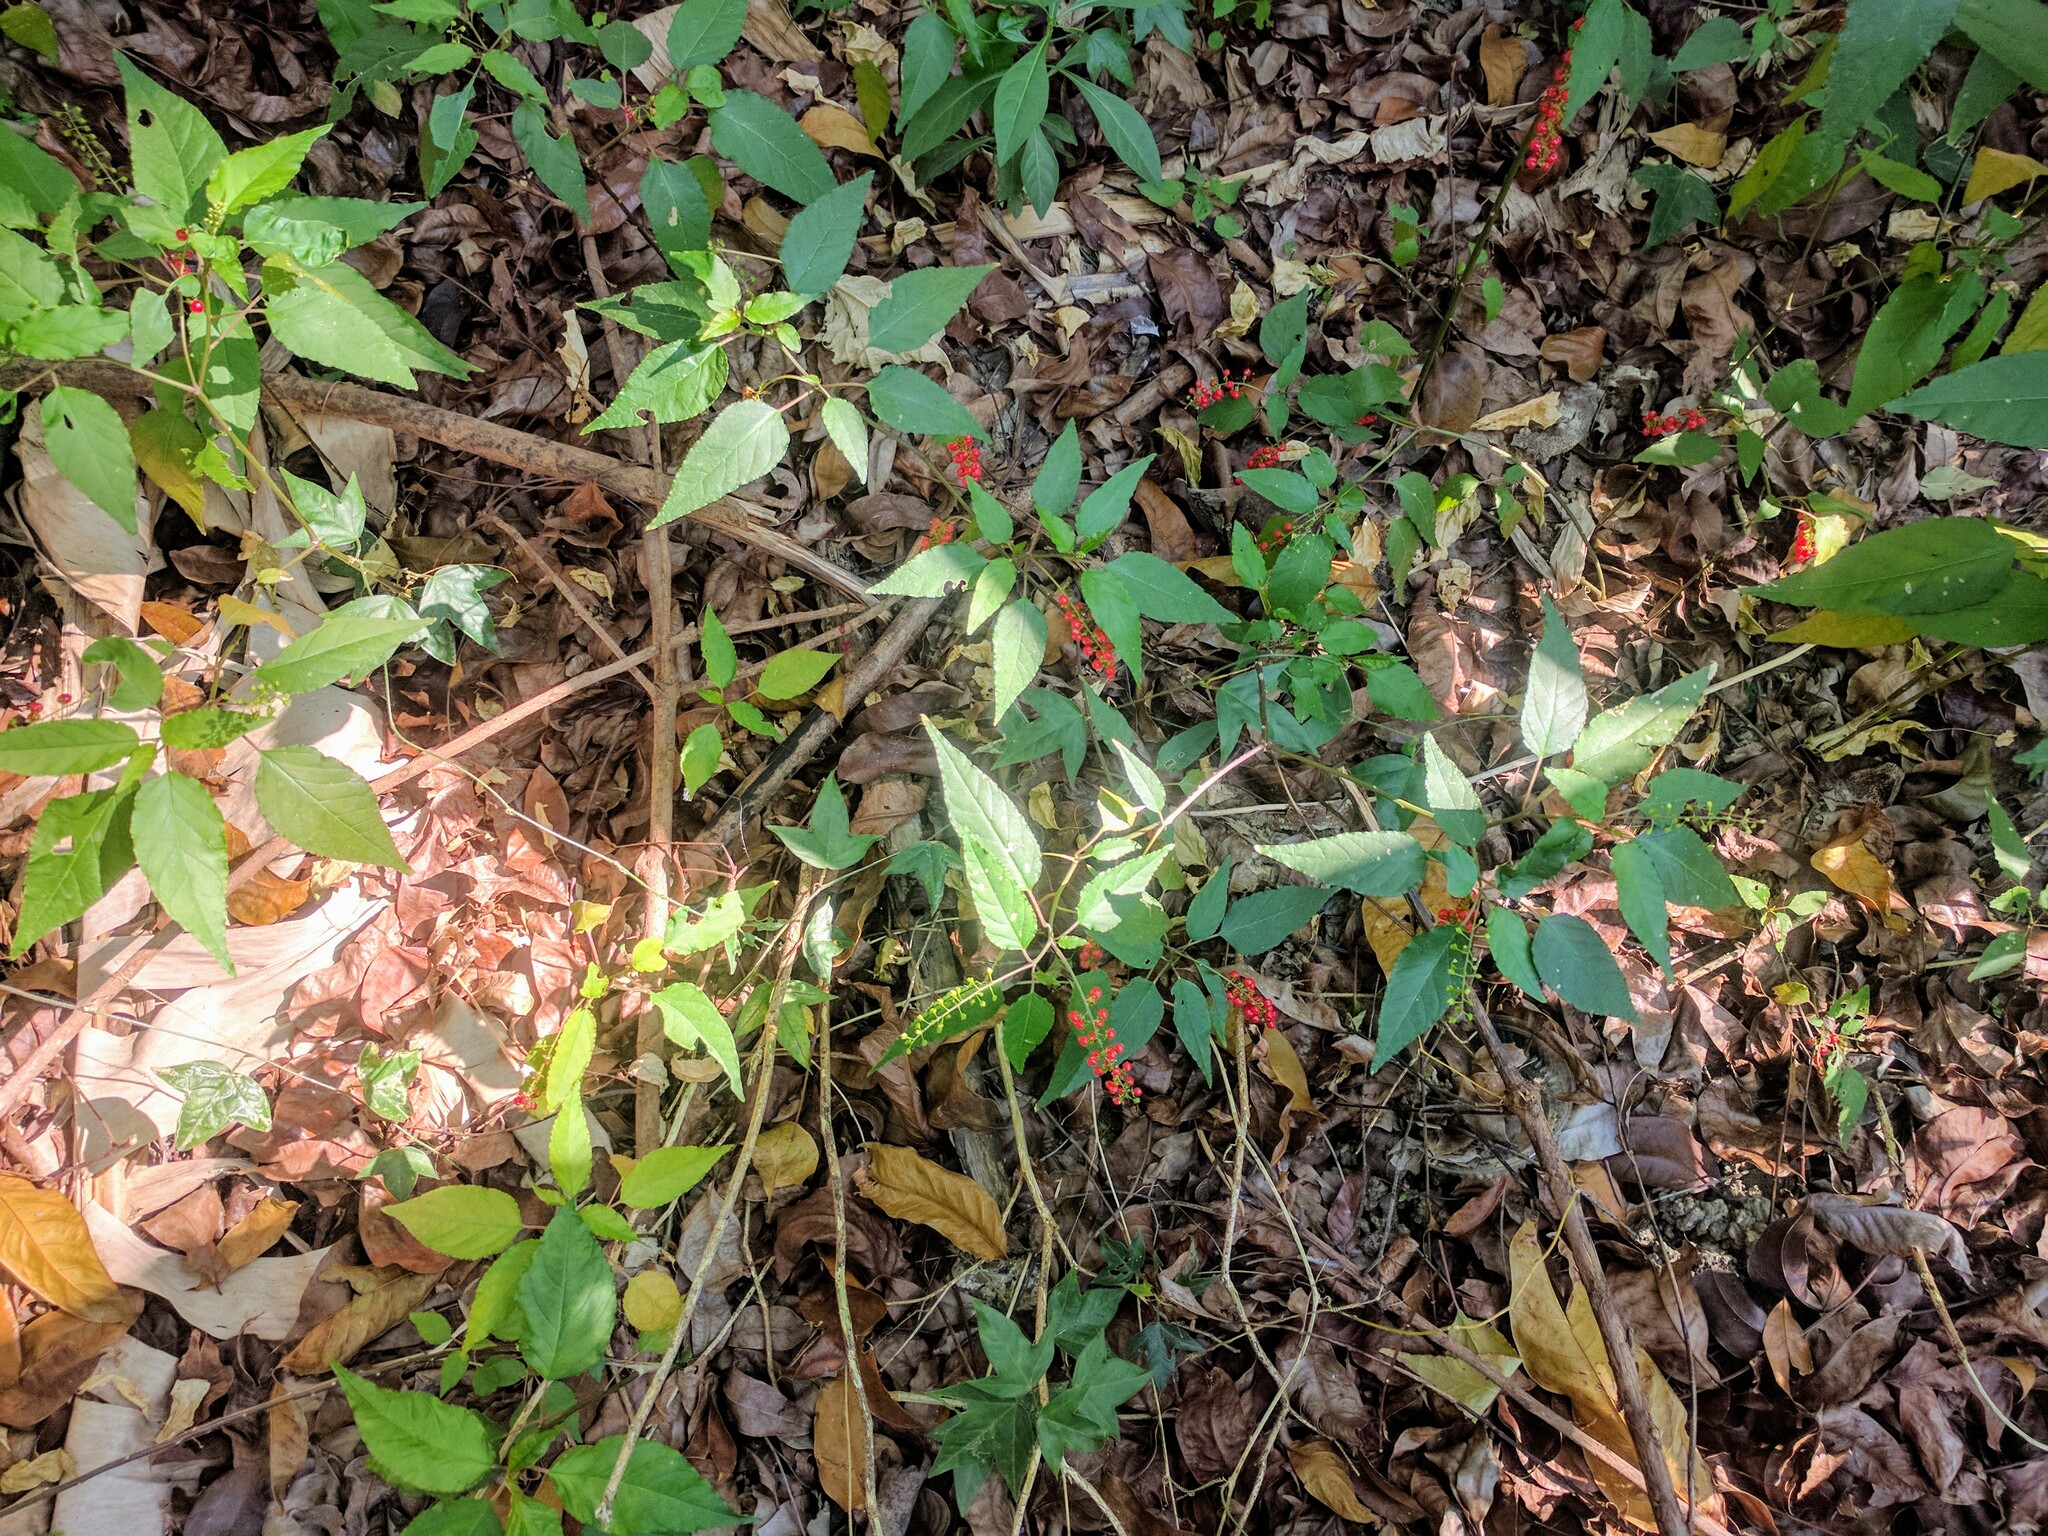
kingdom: Plantae
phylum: Tracheophyta
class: Magnoliopsida
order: Caryophyllales
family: Phytolaccaceae
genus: Rivina
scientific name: Rivina humilis
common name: Rougeplant
